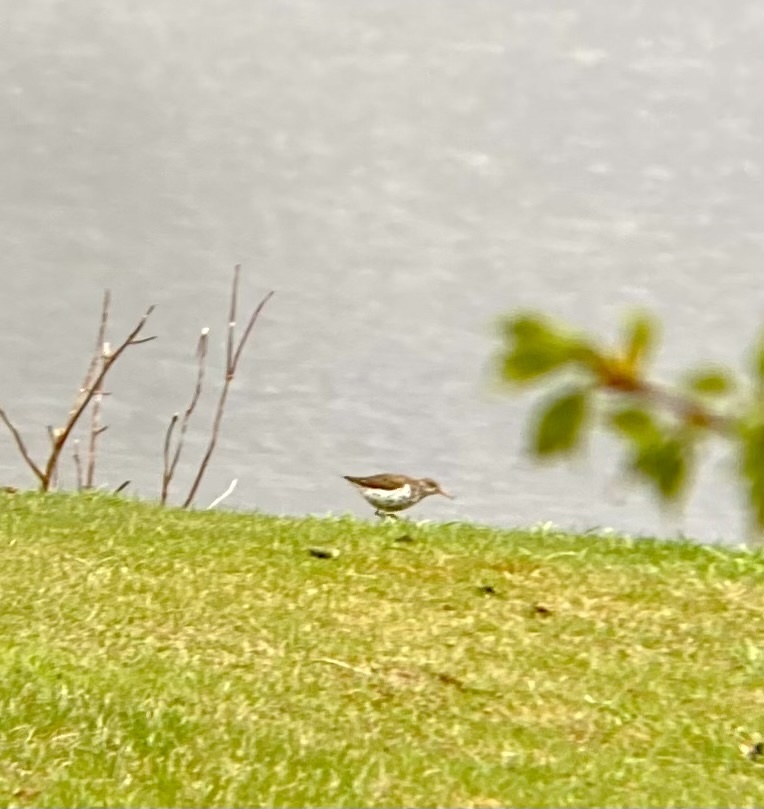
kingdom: Animalia
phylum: Chordata
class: Aves
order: Charadriiformes
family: Scolopacidae
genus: Actitis
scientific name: Actitis macularius
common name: Spotted sandpiper
